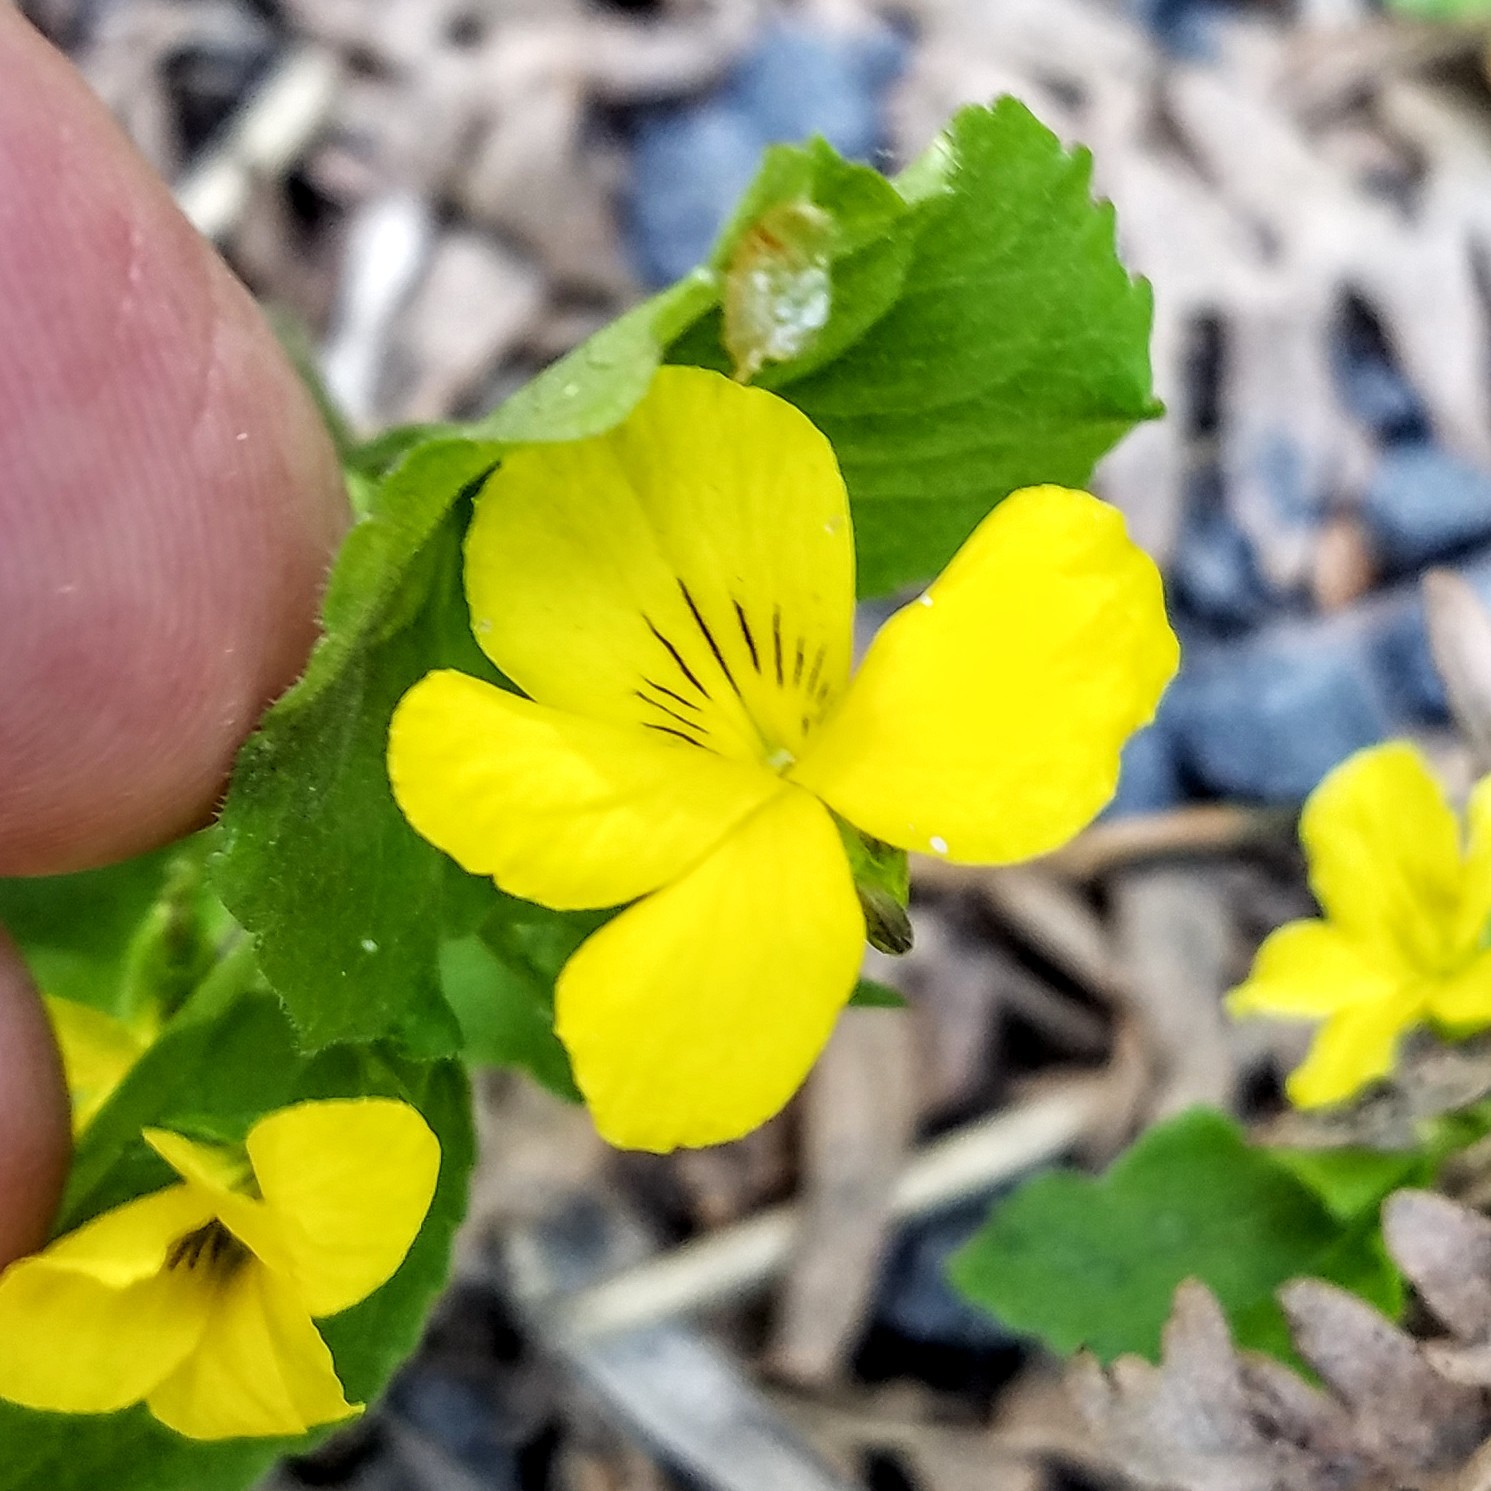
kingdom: Plantae
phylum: Tracheophyta
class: Magnoliopsida
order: Malpighiales
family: Violaceae
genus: Viola
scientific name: Viola glabella
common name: Stream violet
